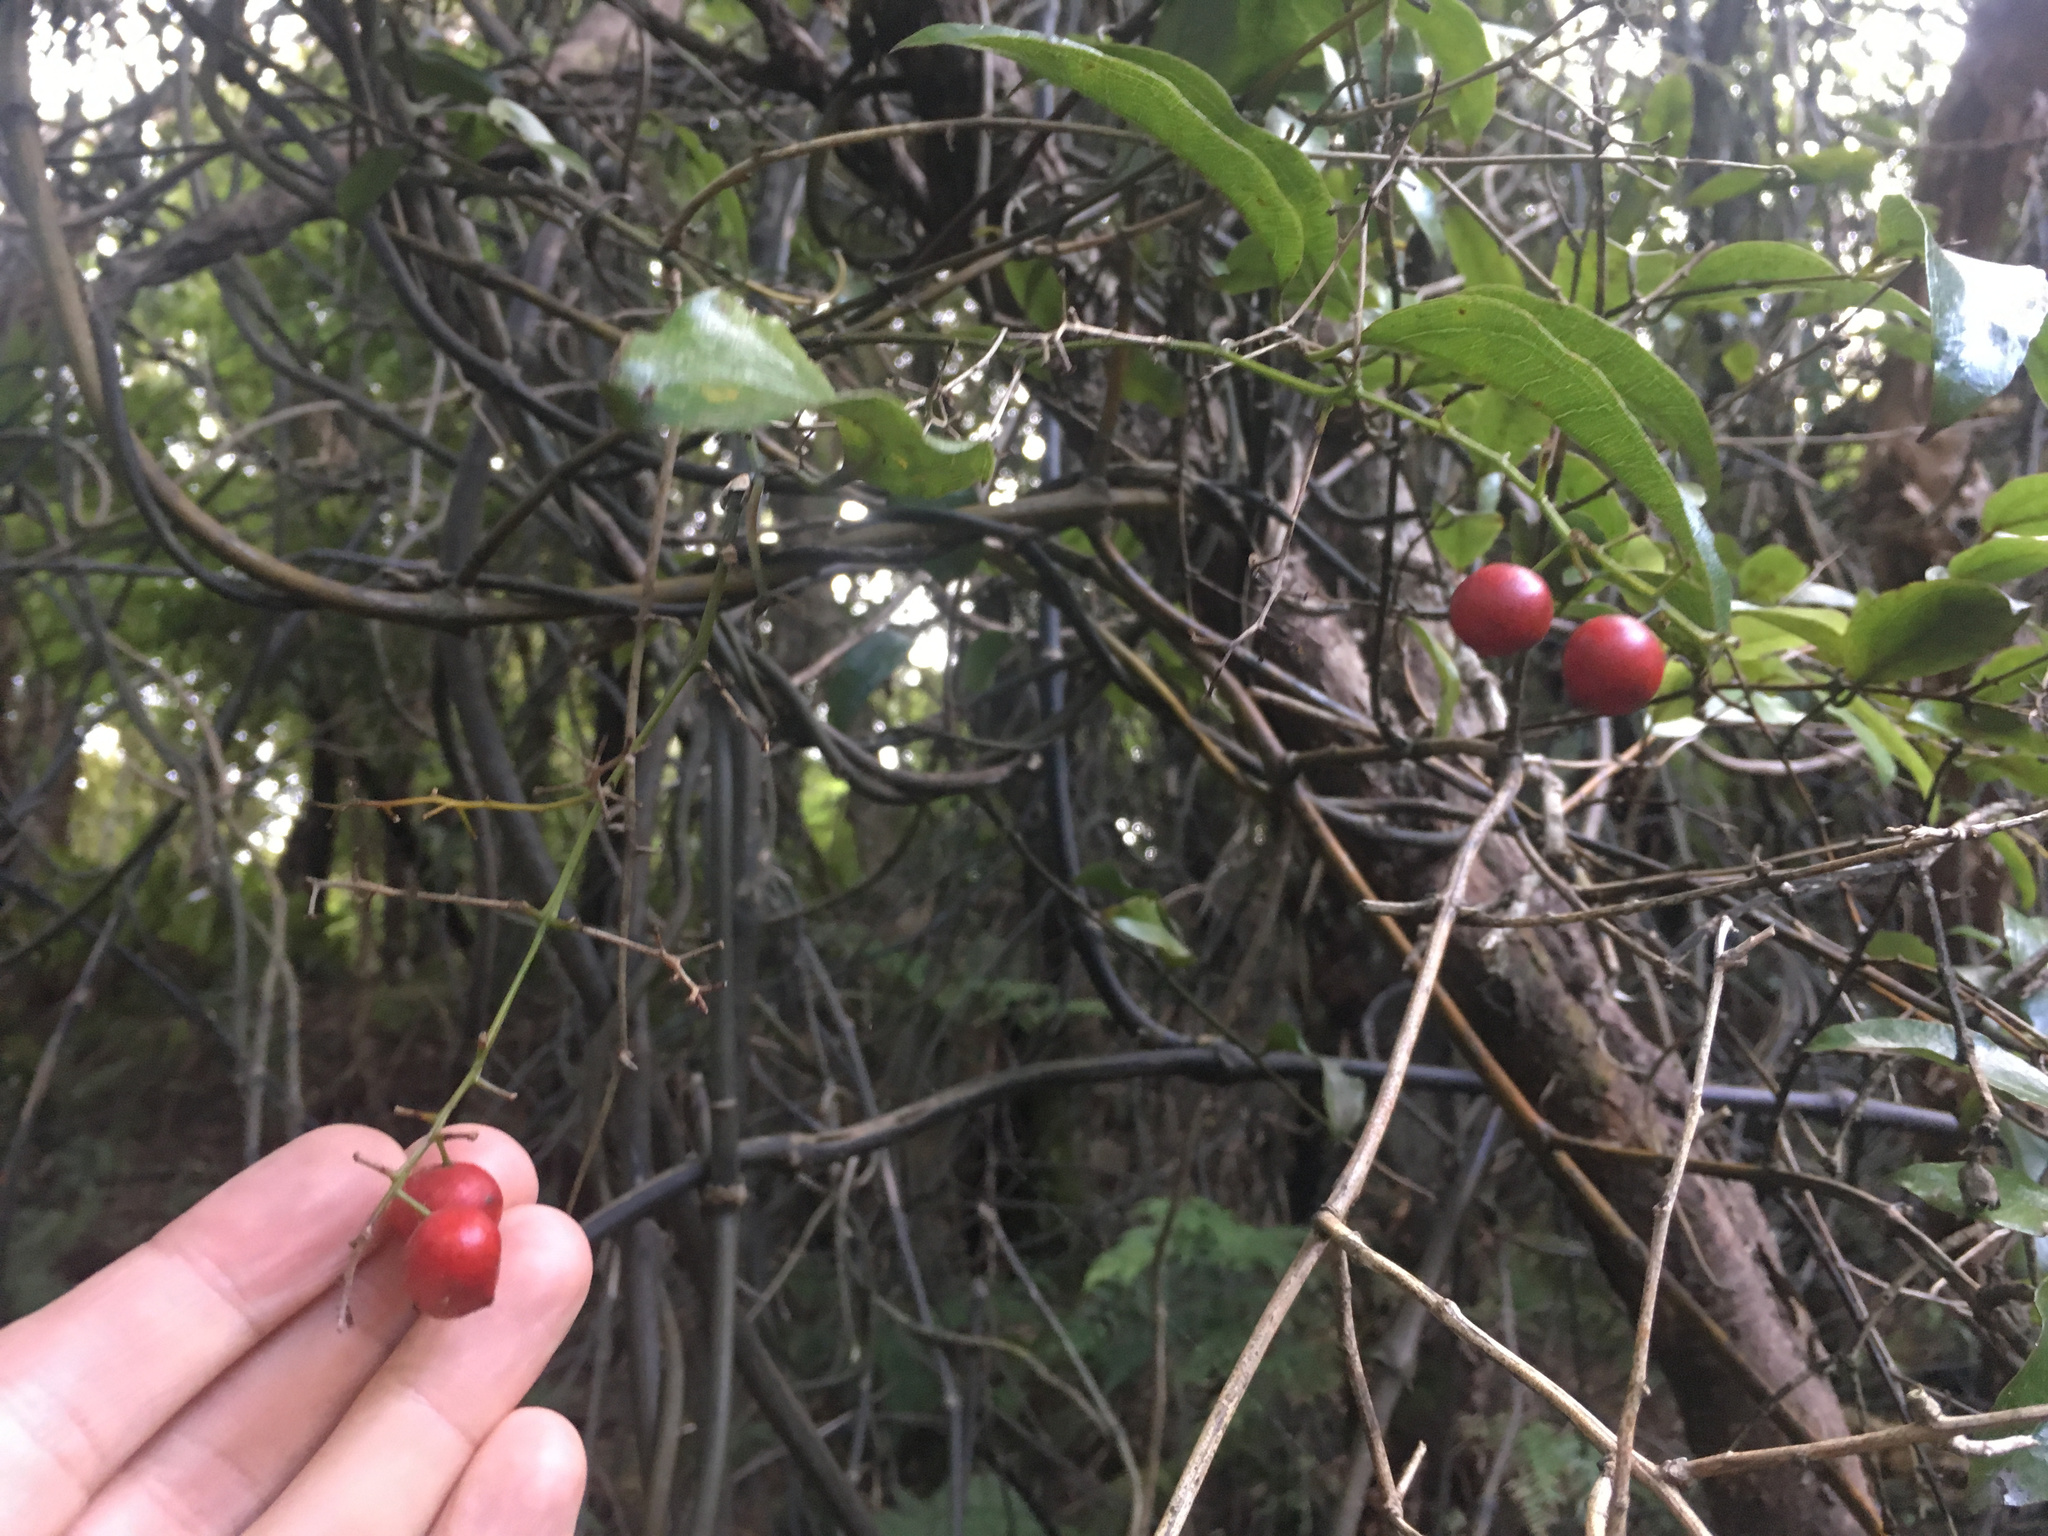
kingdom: Plantae
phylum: Tracheophyta
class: Liliopsida
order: Liliales
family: Ripogonaceae
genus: Ripogonum
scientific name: Ripogonum scandens
